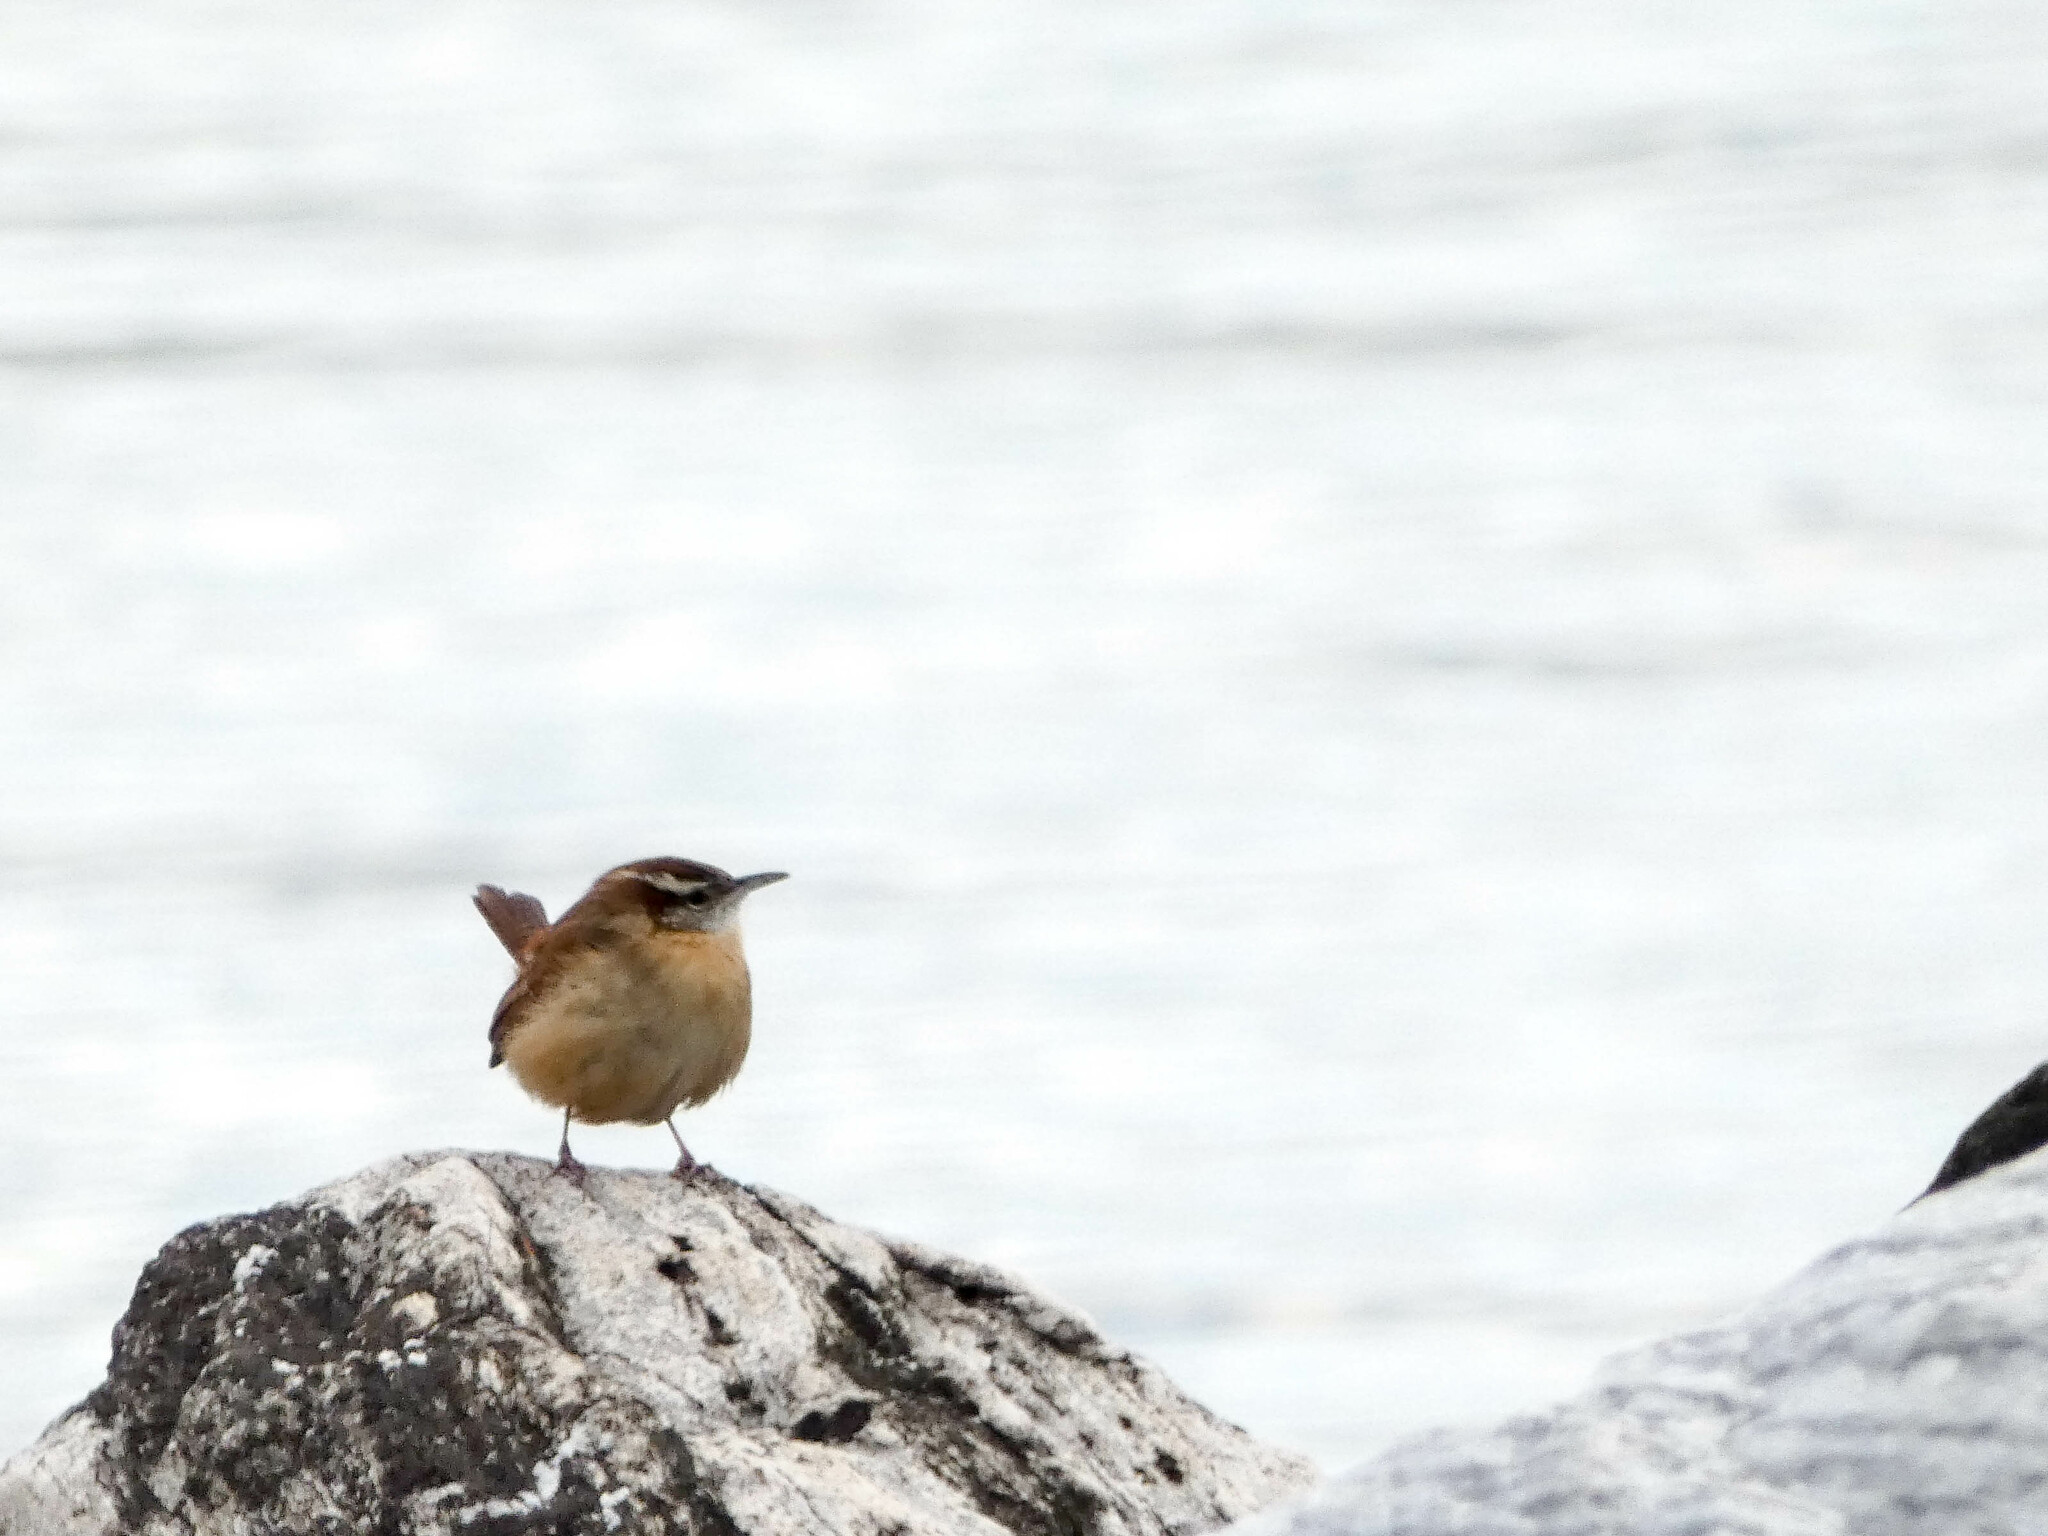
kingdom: Animalia
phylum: Chordata
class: Aves
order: Passeriformes
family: Troglodytidae
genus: Thryothorus
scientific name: Thryothorus ludovicianus
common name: Carolina wren
